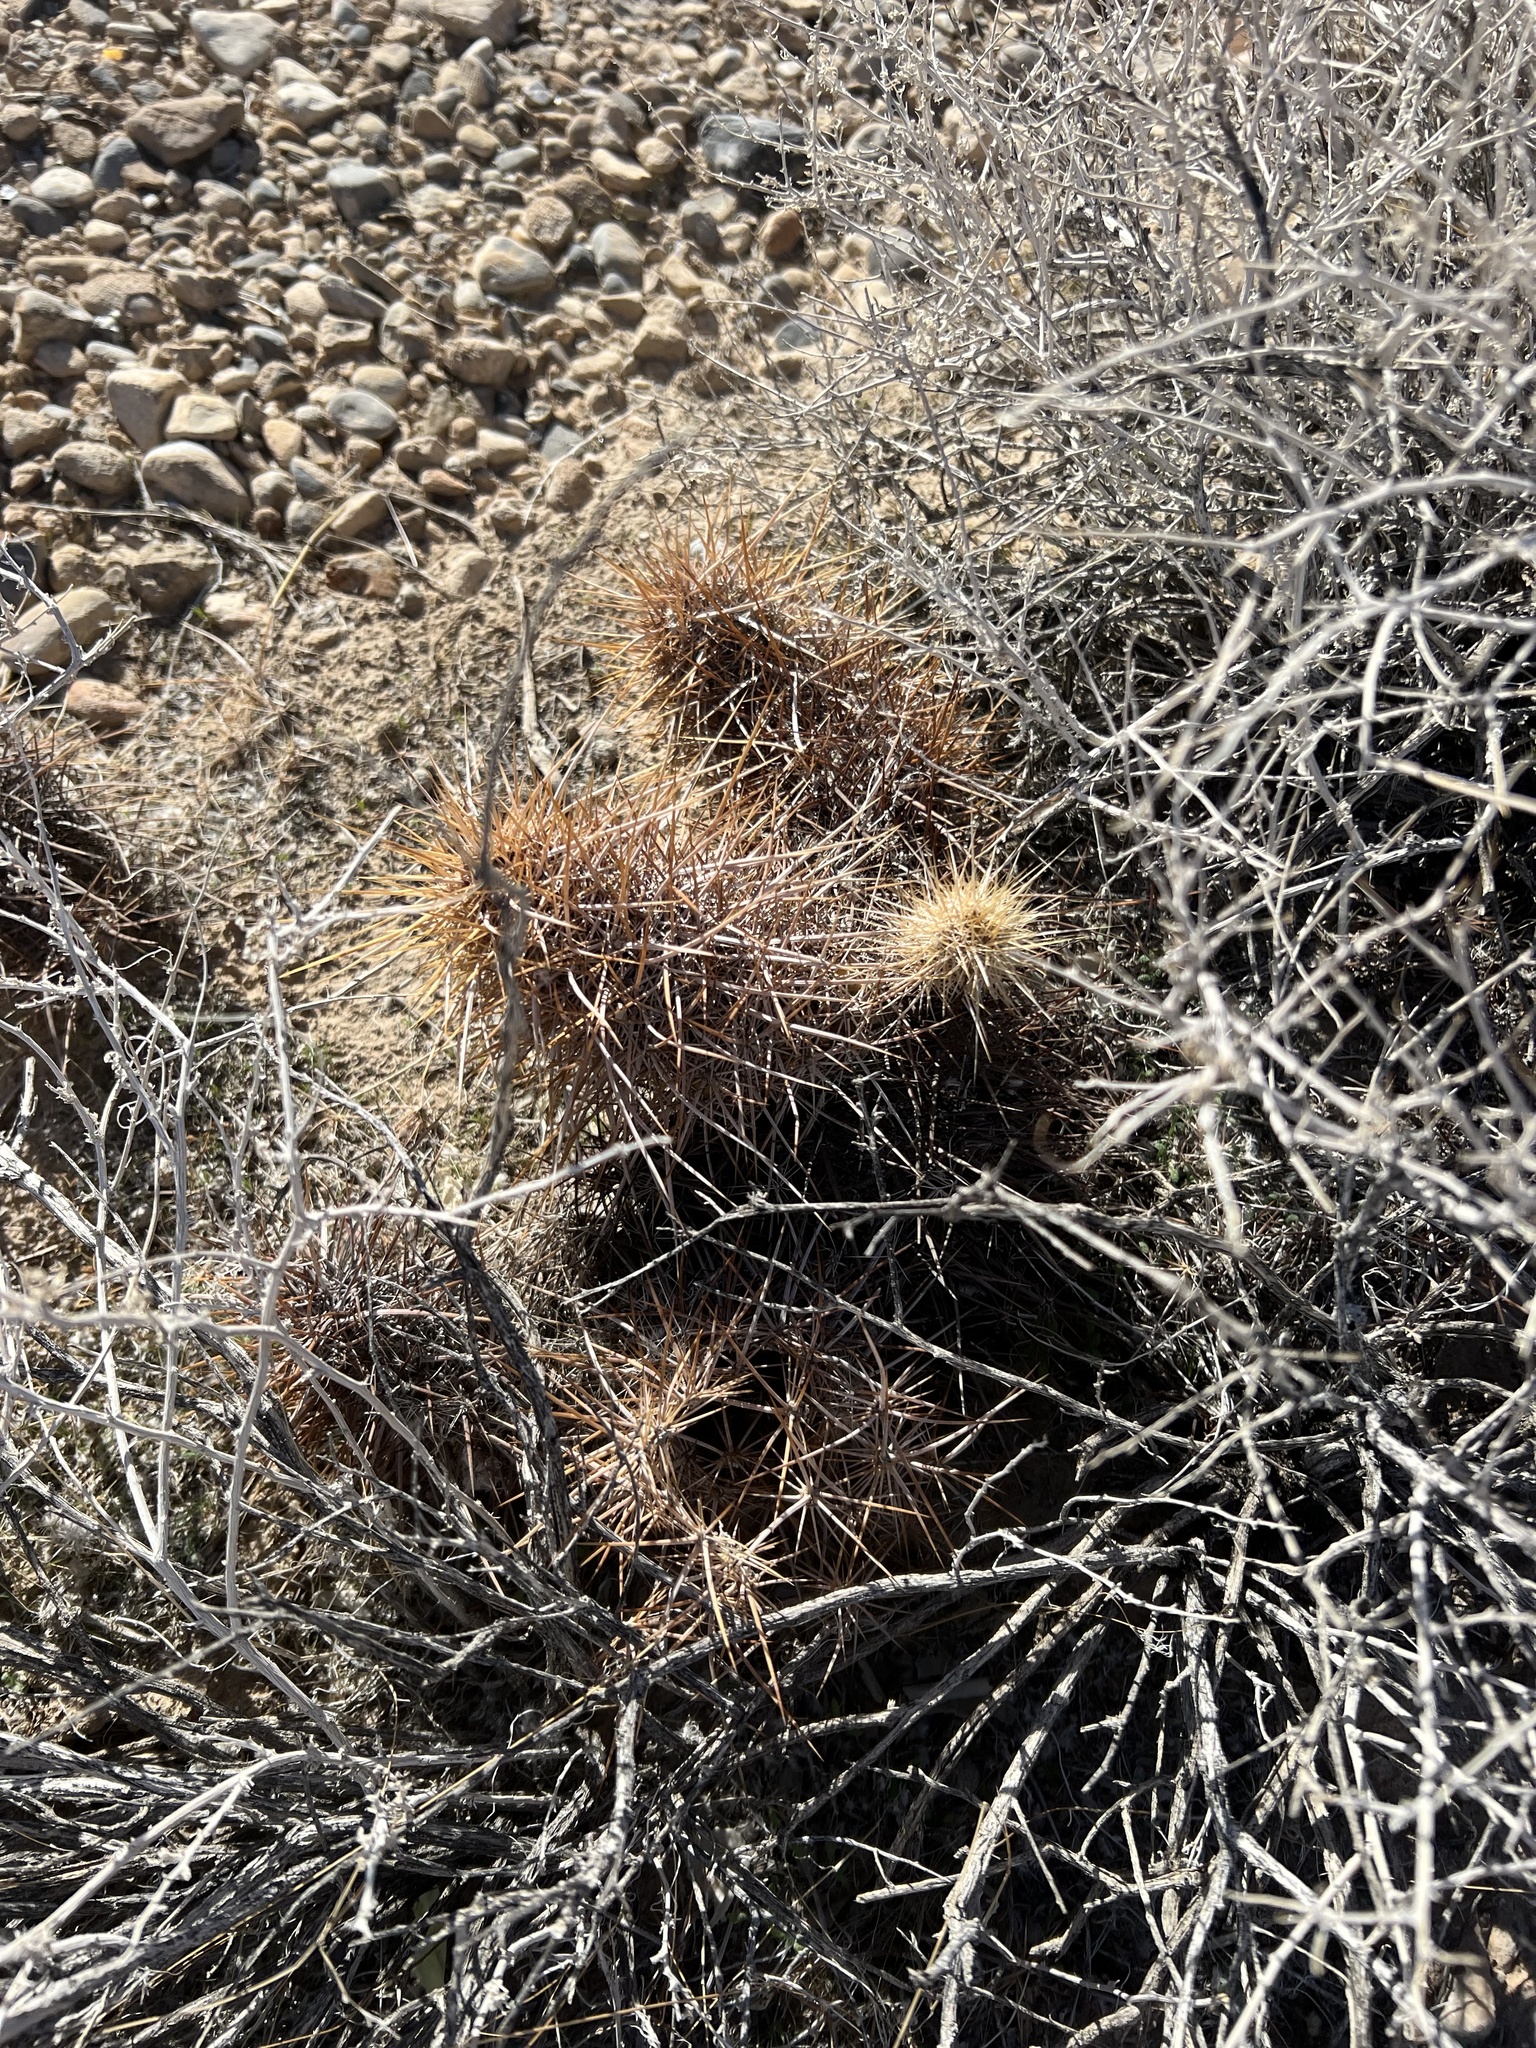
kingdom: Plantae
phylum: Tracheophyta
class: Magnoliopsida
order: Caryophyllales
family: Cactaceae
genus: Echinocereus
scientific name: Echinocereus engelmannii
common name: Engelmann's hedgehog cactus
